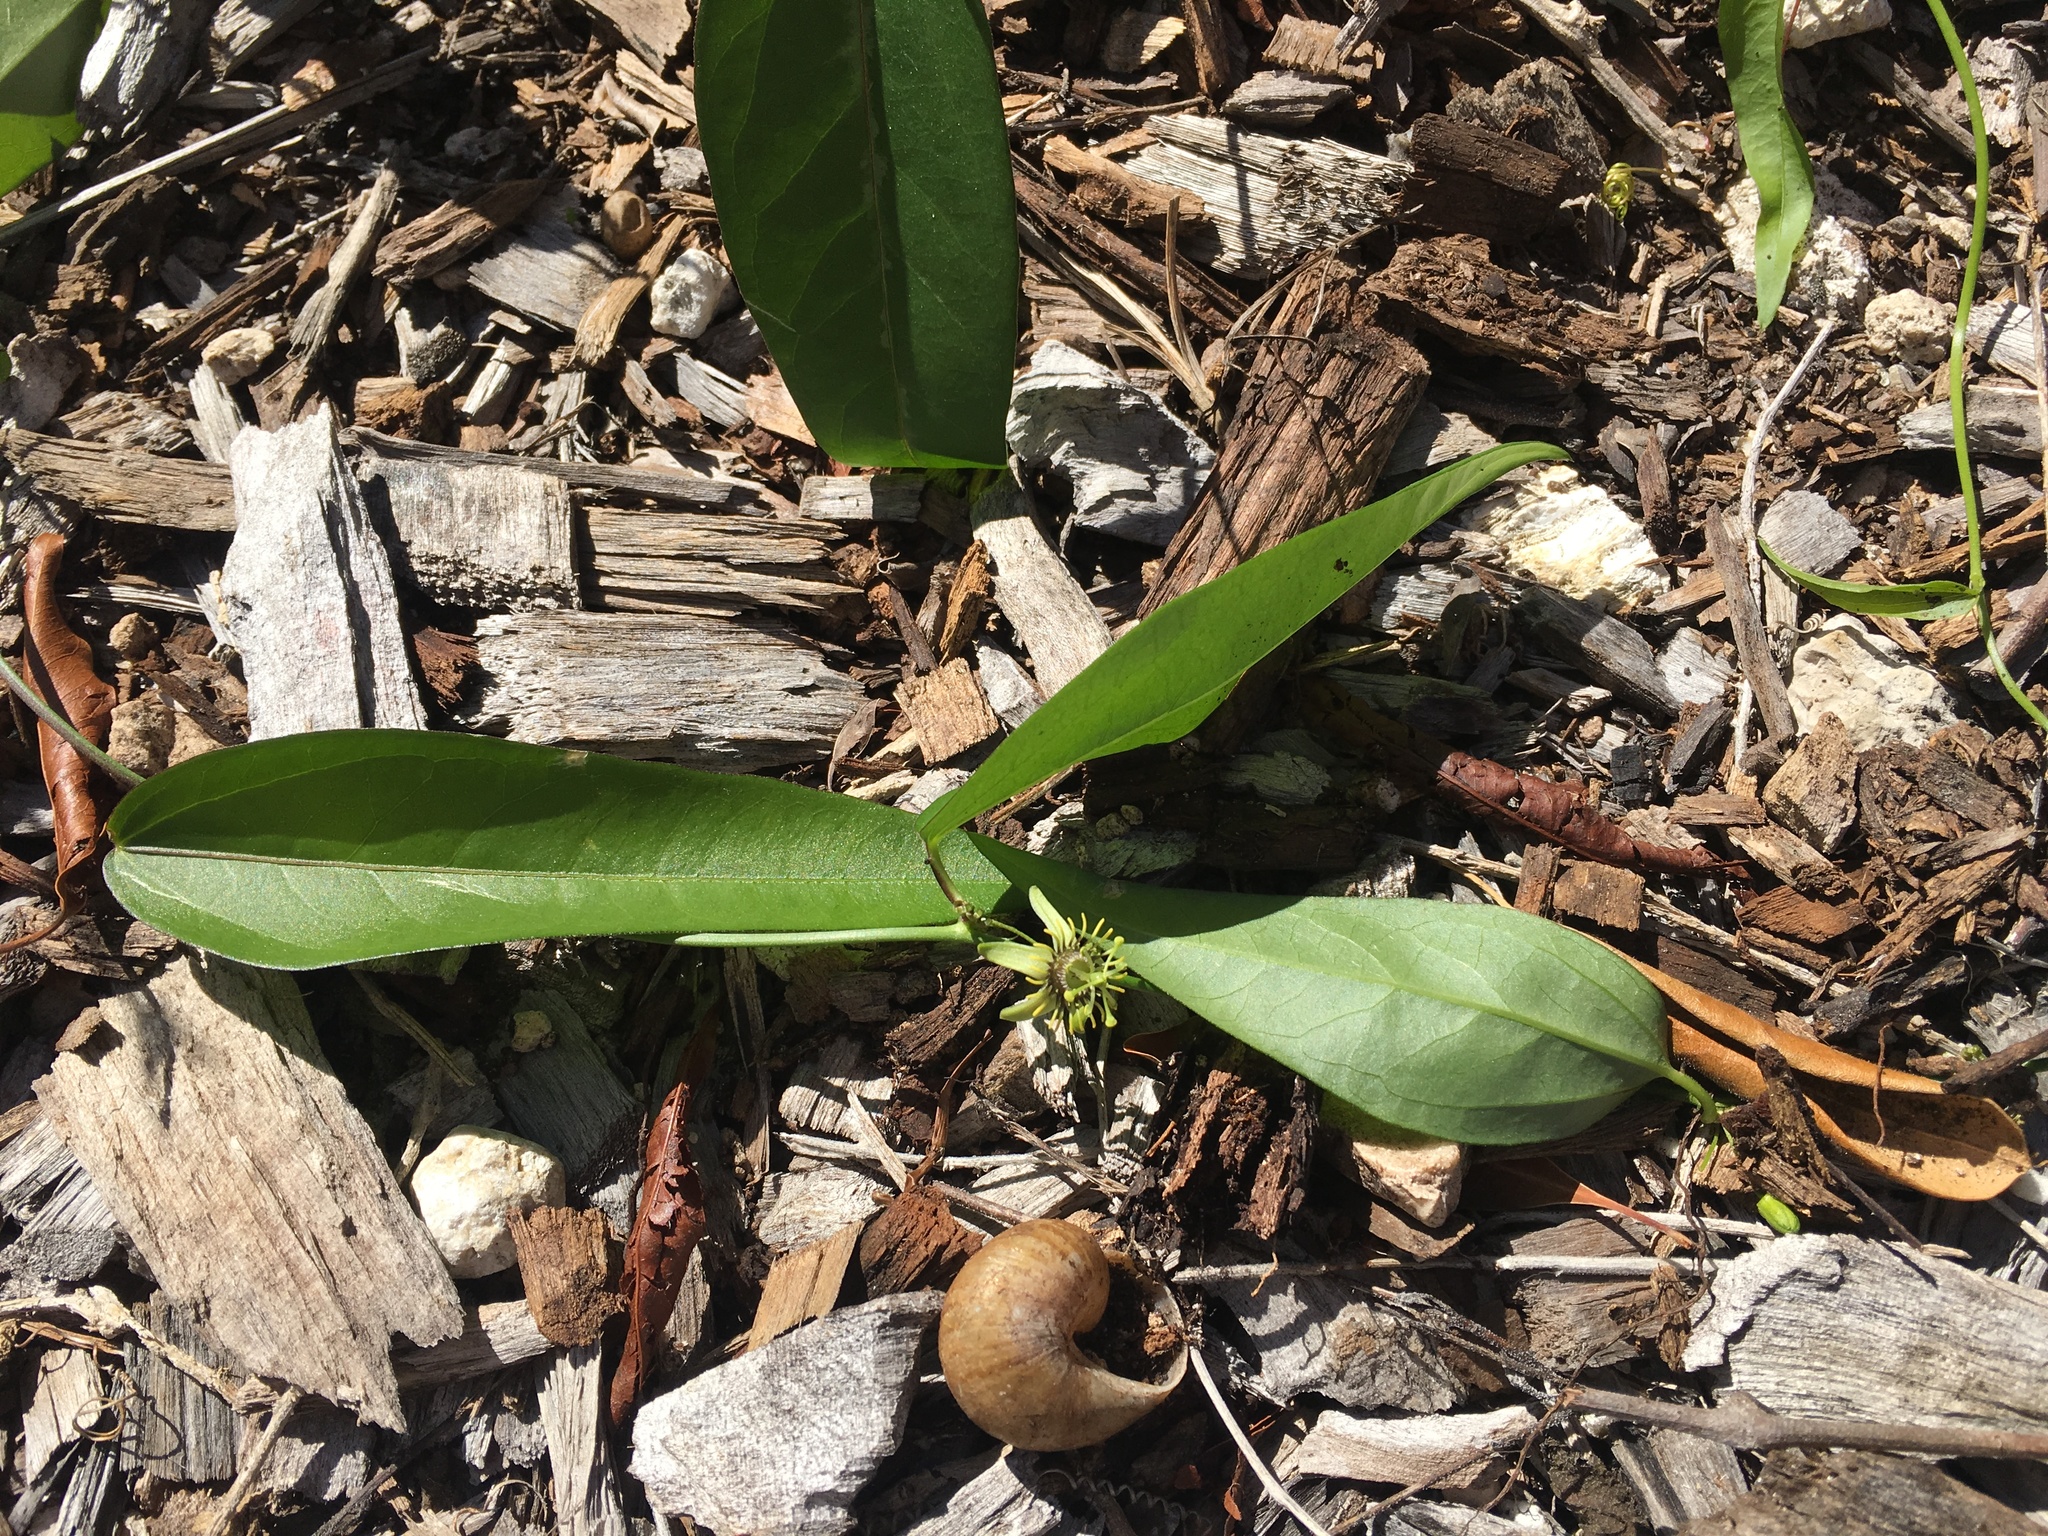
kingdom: Plantae
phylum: Tracheophyta
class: Magnoliopsida
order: Malpighiales
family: Passifloraceae
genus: Passiflora
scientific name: Passiflora pallida
